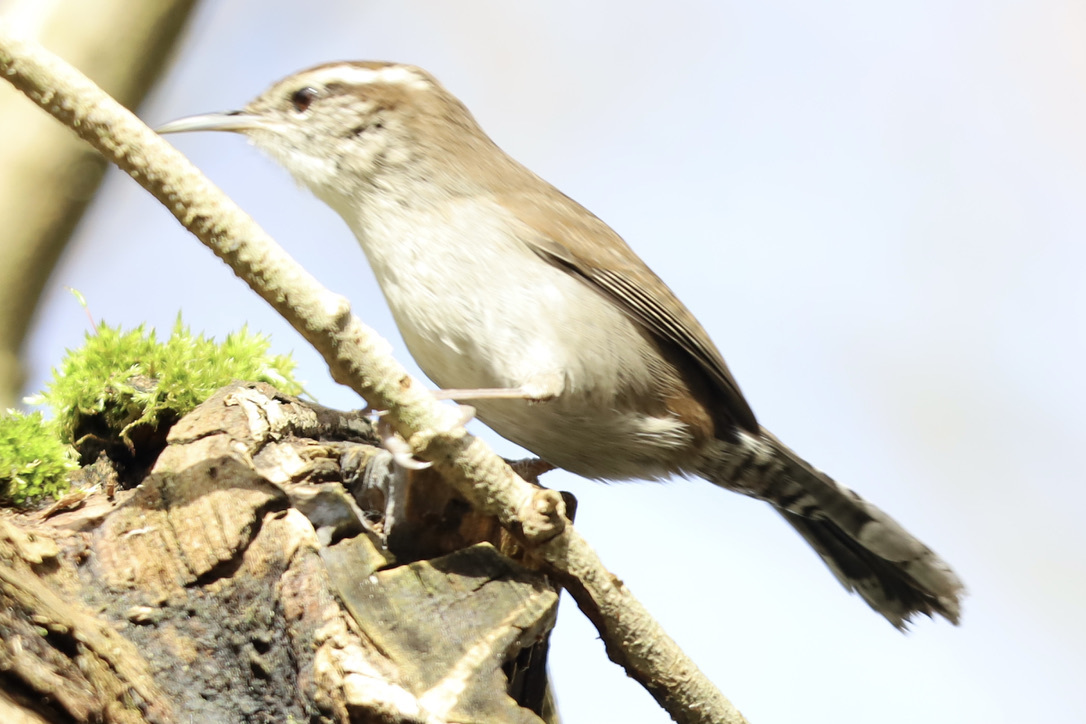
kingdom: Animalia
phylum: Chordata
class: Aves
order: Passeriformes
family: Troglodytidae
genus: Thryomanes
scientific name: Thryomanes bewickii
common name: Bewick's wren
